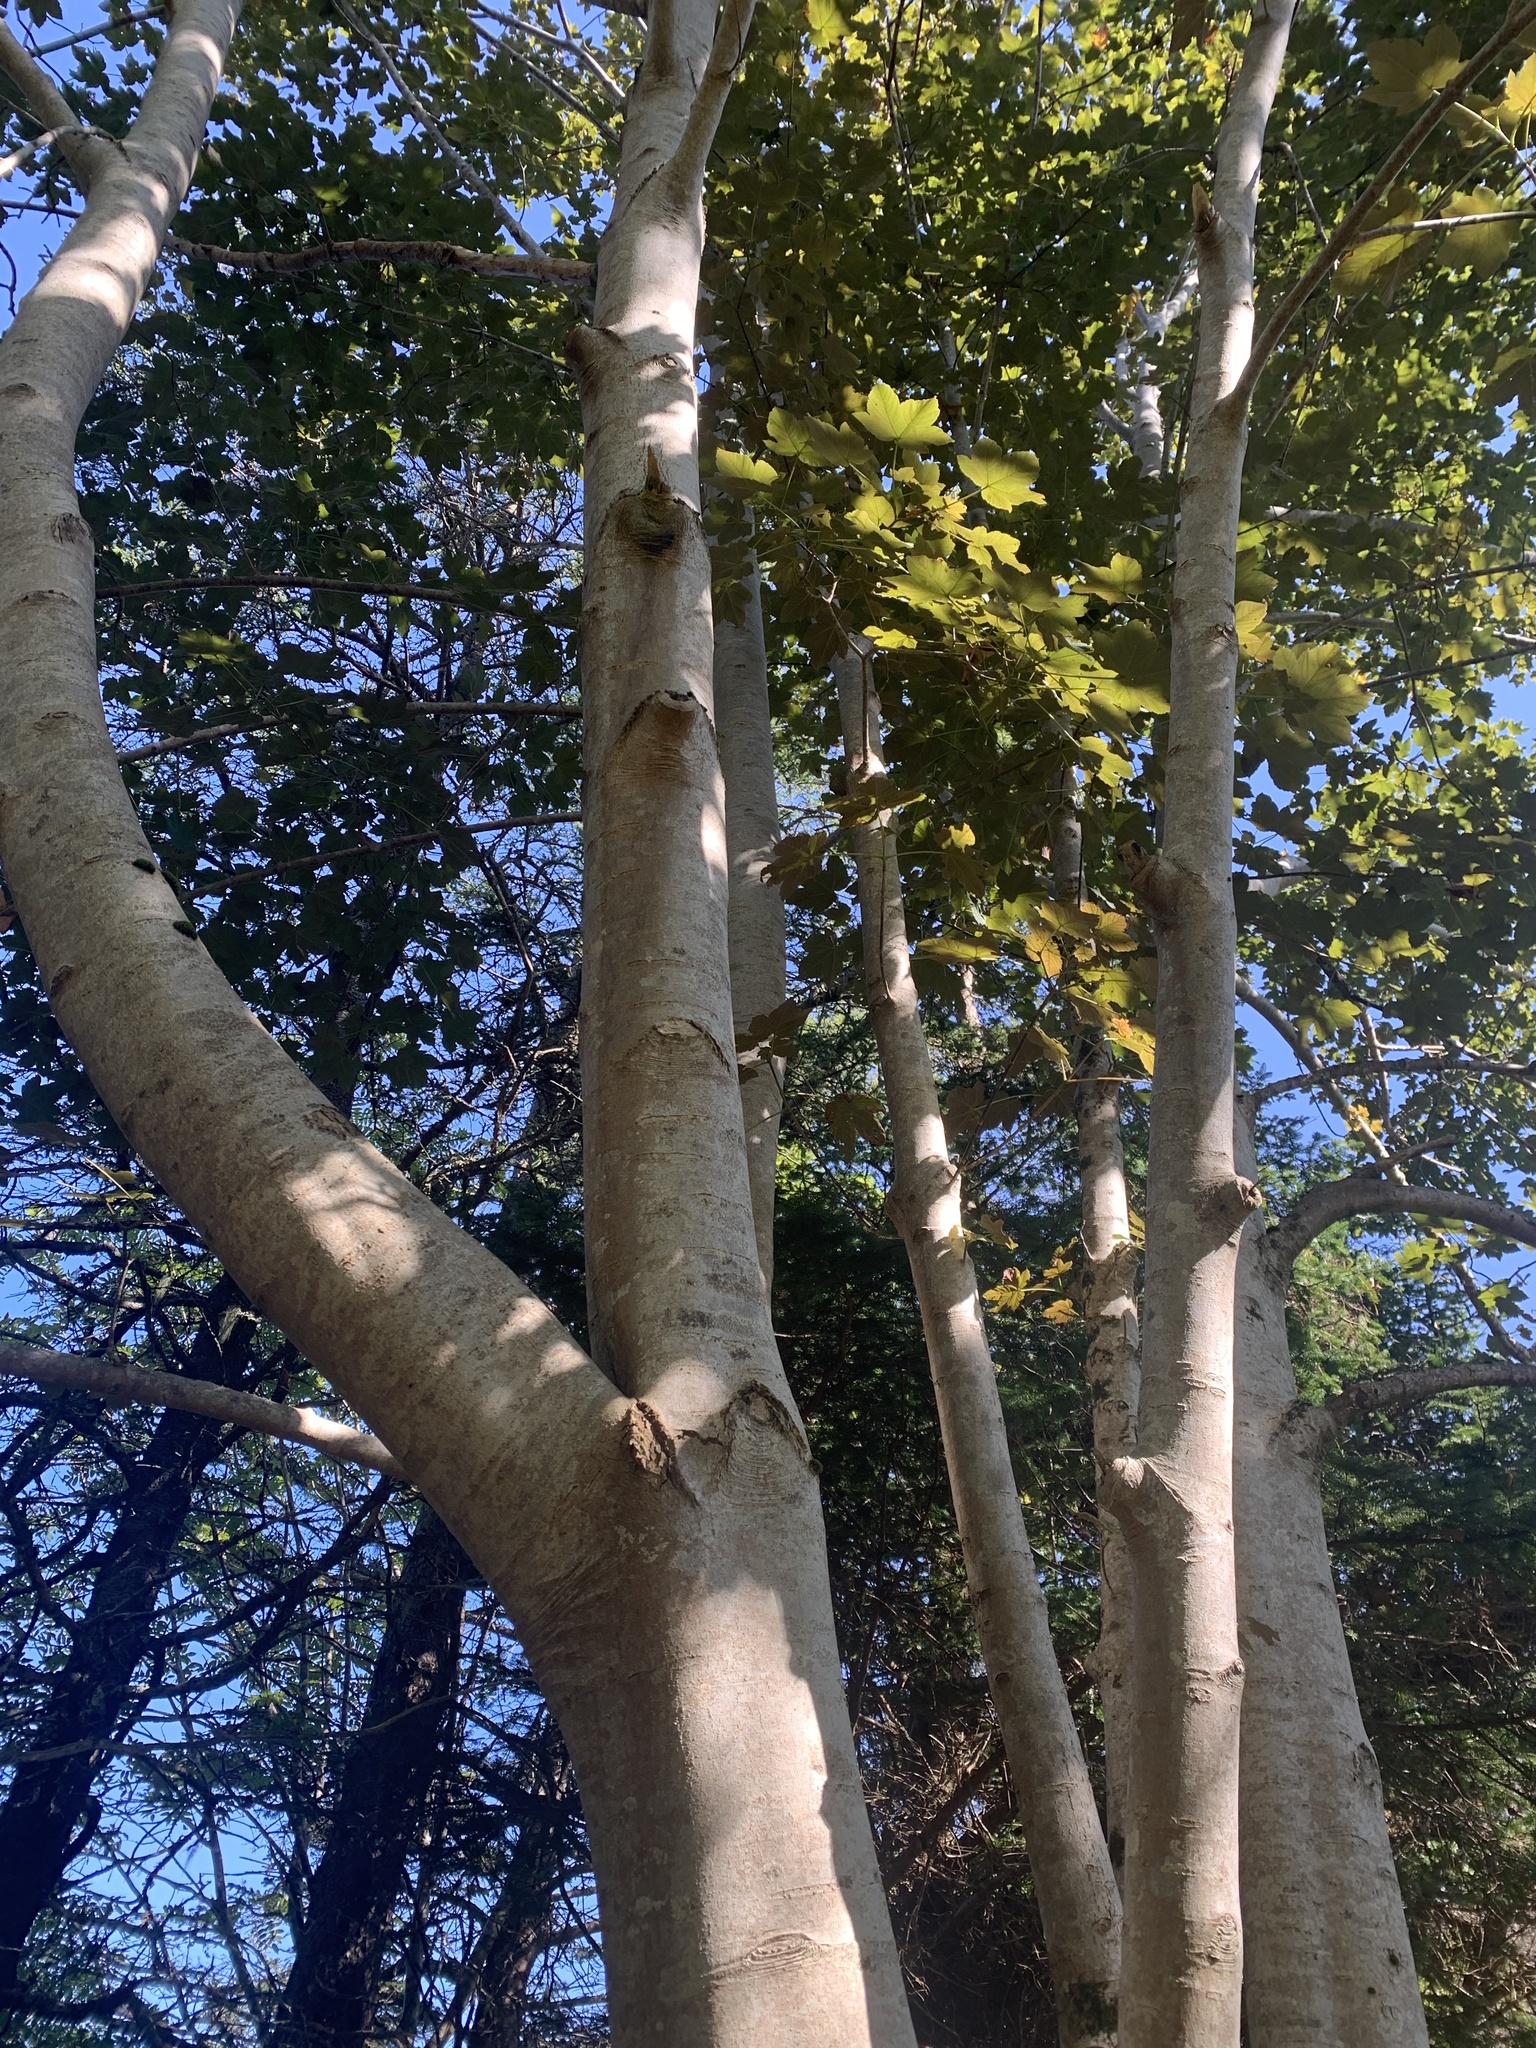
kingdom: Plantae
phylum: Tracheophyta
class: Magnoliopsida
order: Sapindales
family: Sapindaceae
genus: Acer
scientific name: Acer pseudoplatanus
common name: Sycamore
